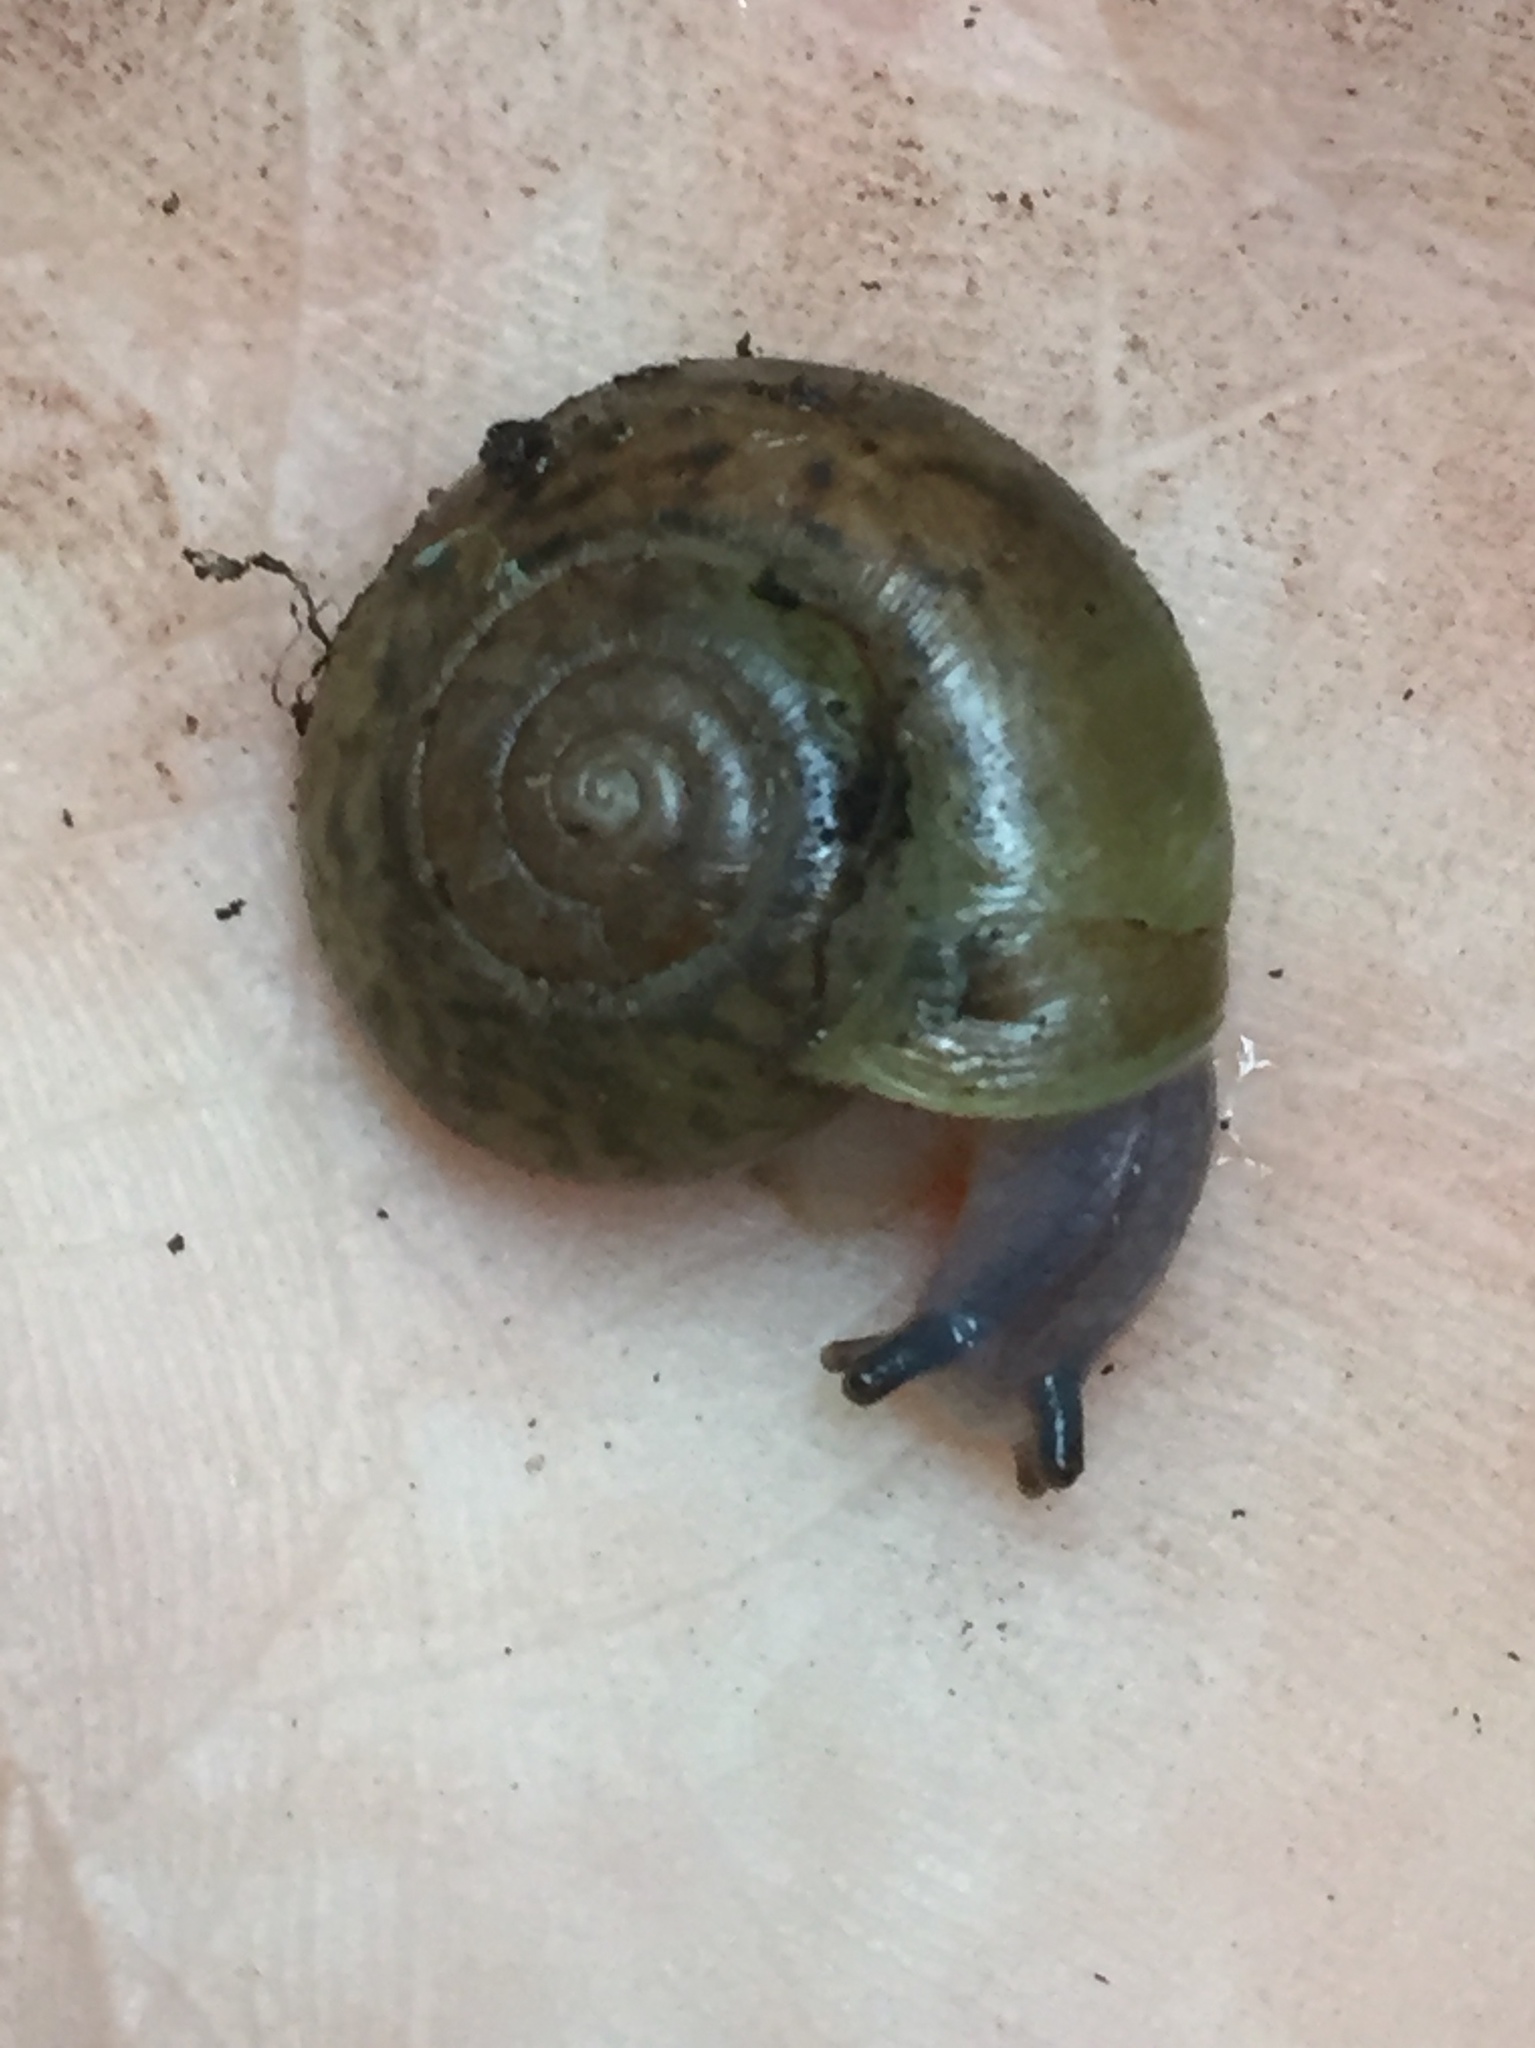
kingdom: Animalia
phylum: Mollusca
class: Gastropoda
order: Stylommatophora
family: Haplotrematidae
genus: Haplotrema
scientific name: Haplotrema minimum
